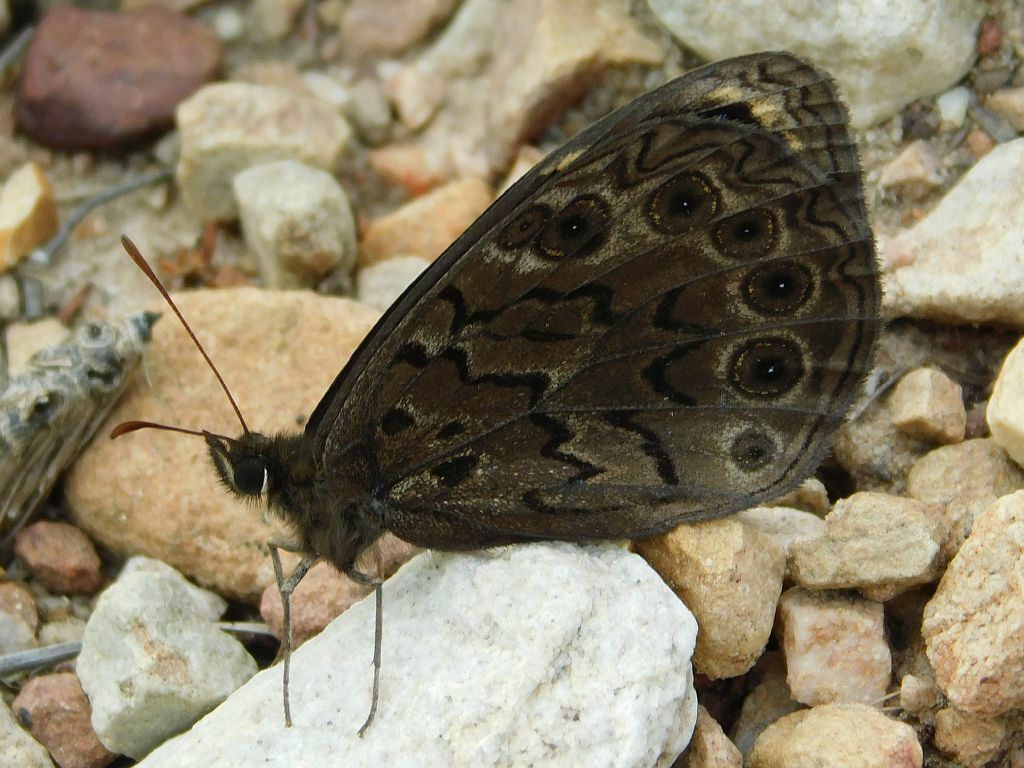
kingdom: Animalia
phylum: Arthropoda
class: Insecta
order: Lepidoptera
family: Nymphalidae
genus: Dira
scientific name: Dira clytus
